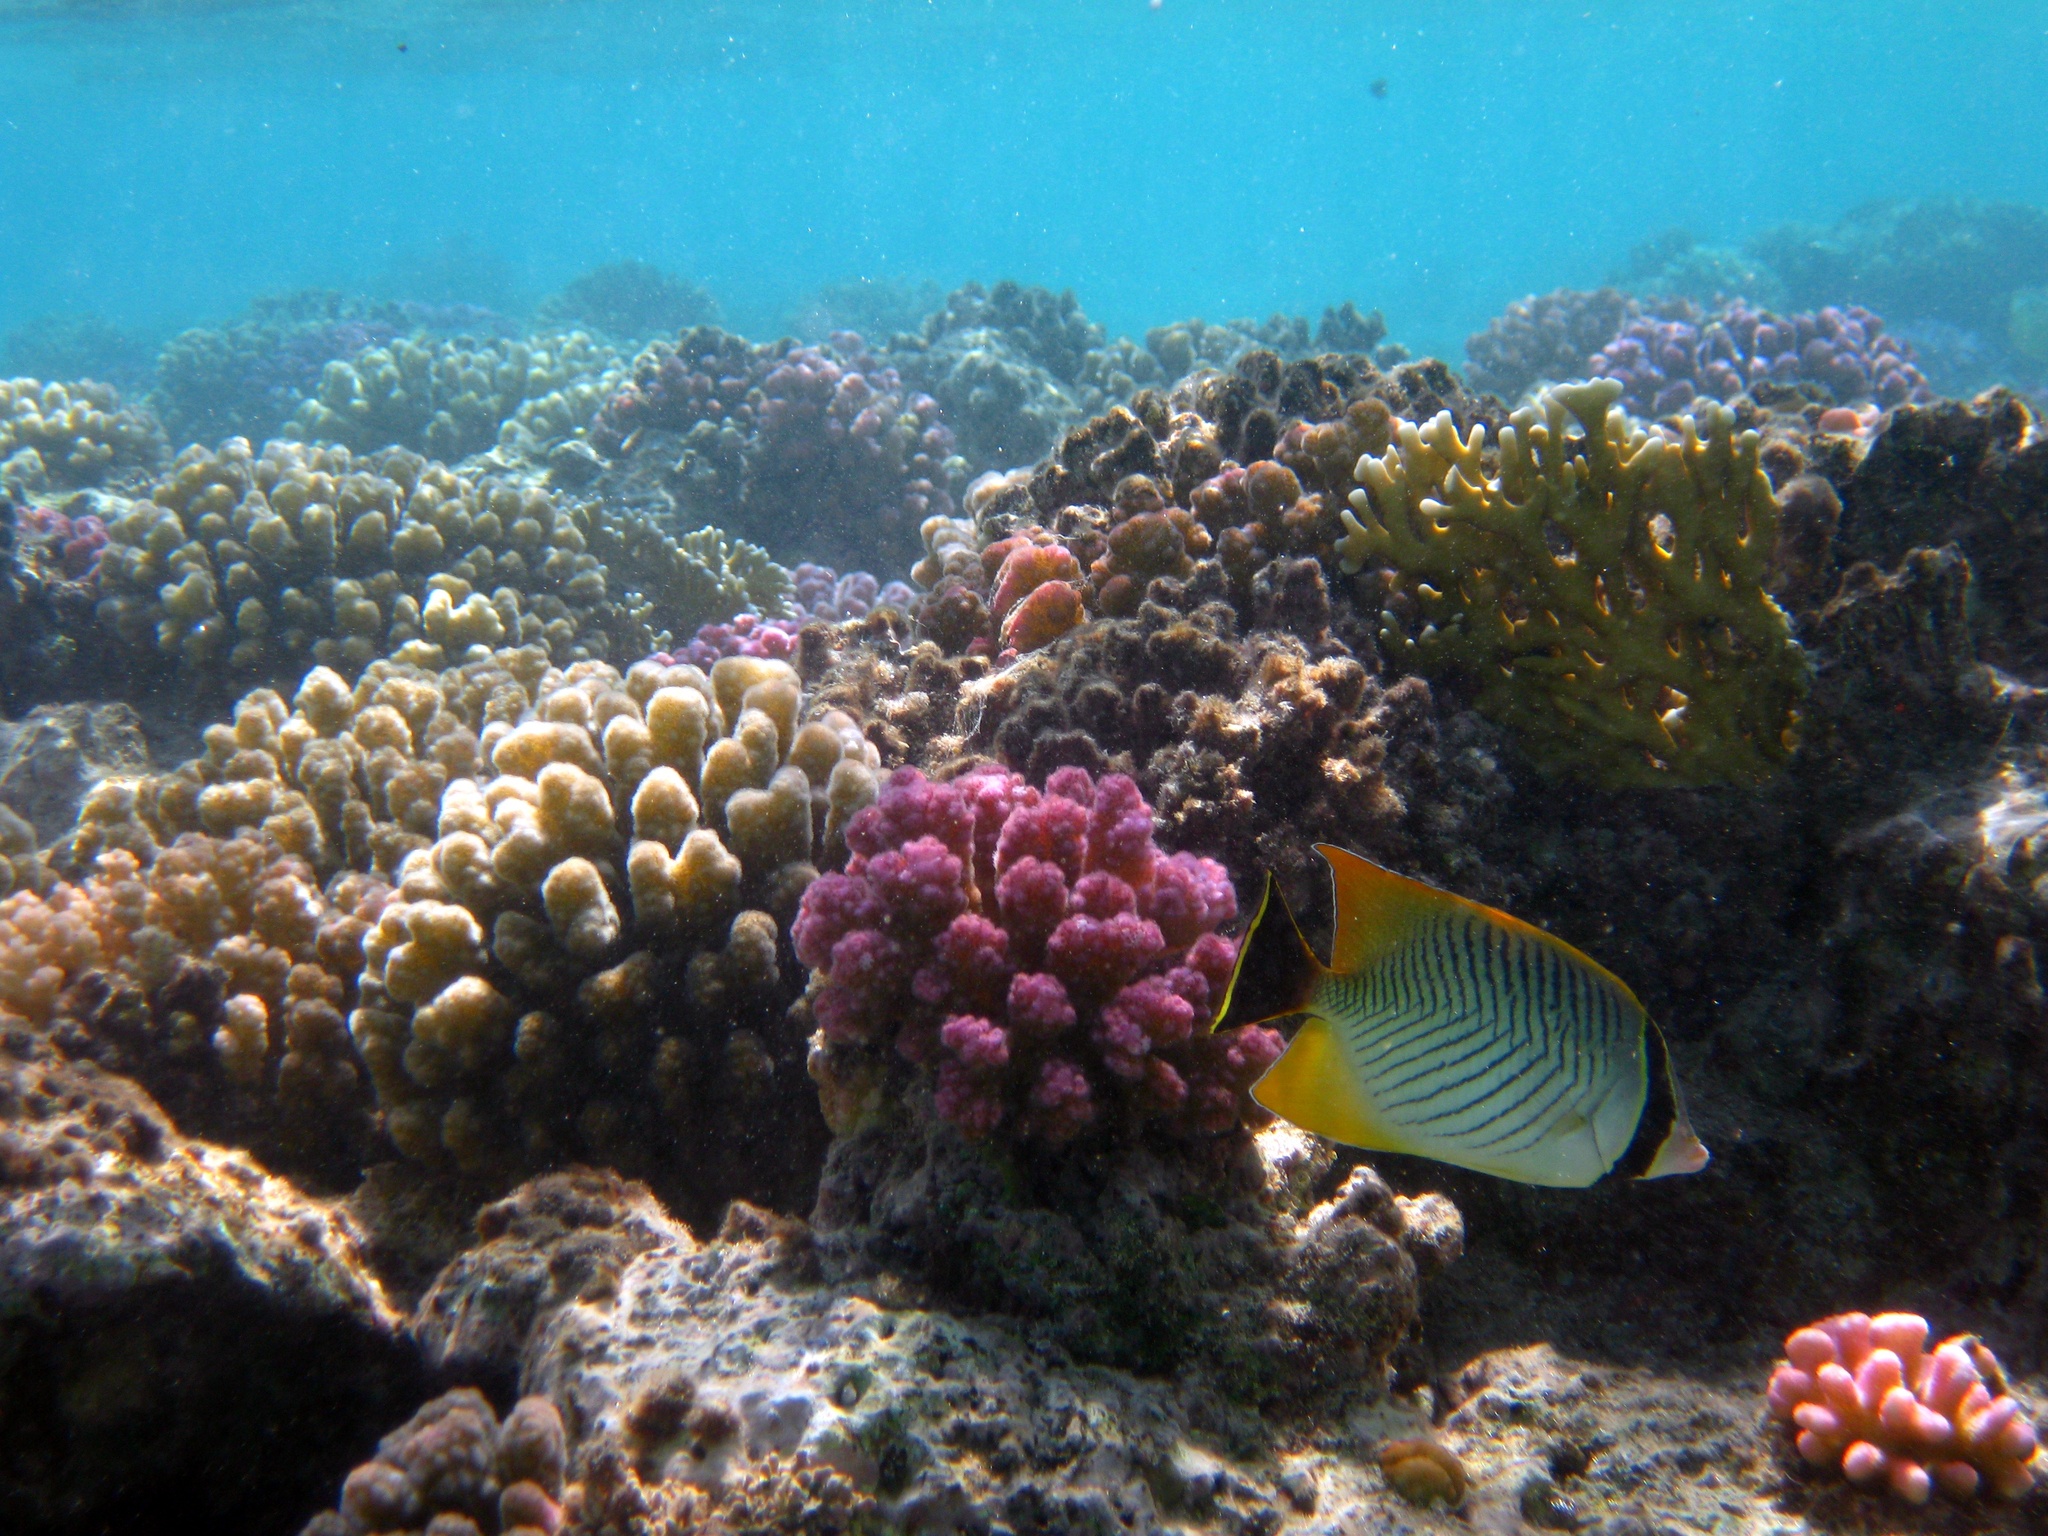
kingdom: Animalia
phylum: Chordata
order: Perciformes
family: Chaetodontidae
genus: Chaetodon
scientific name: Chaetodon trifascialis
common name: Chevroned butterflyfish
